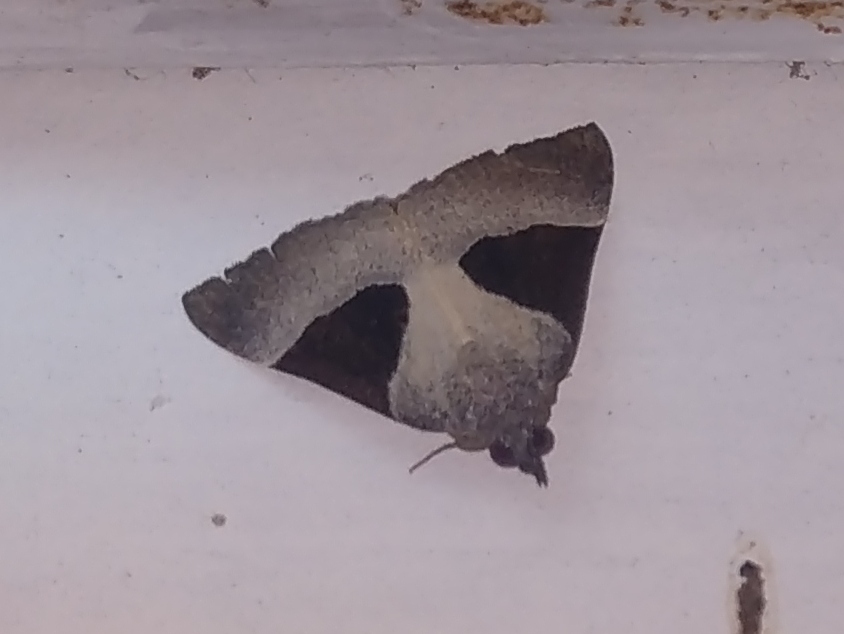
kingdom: Animalia
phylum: Arthropoda
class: Insecta
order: Lepidoptera
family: Erebidae
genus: Hypena
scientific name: Hypena Dichromia sagitta
